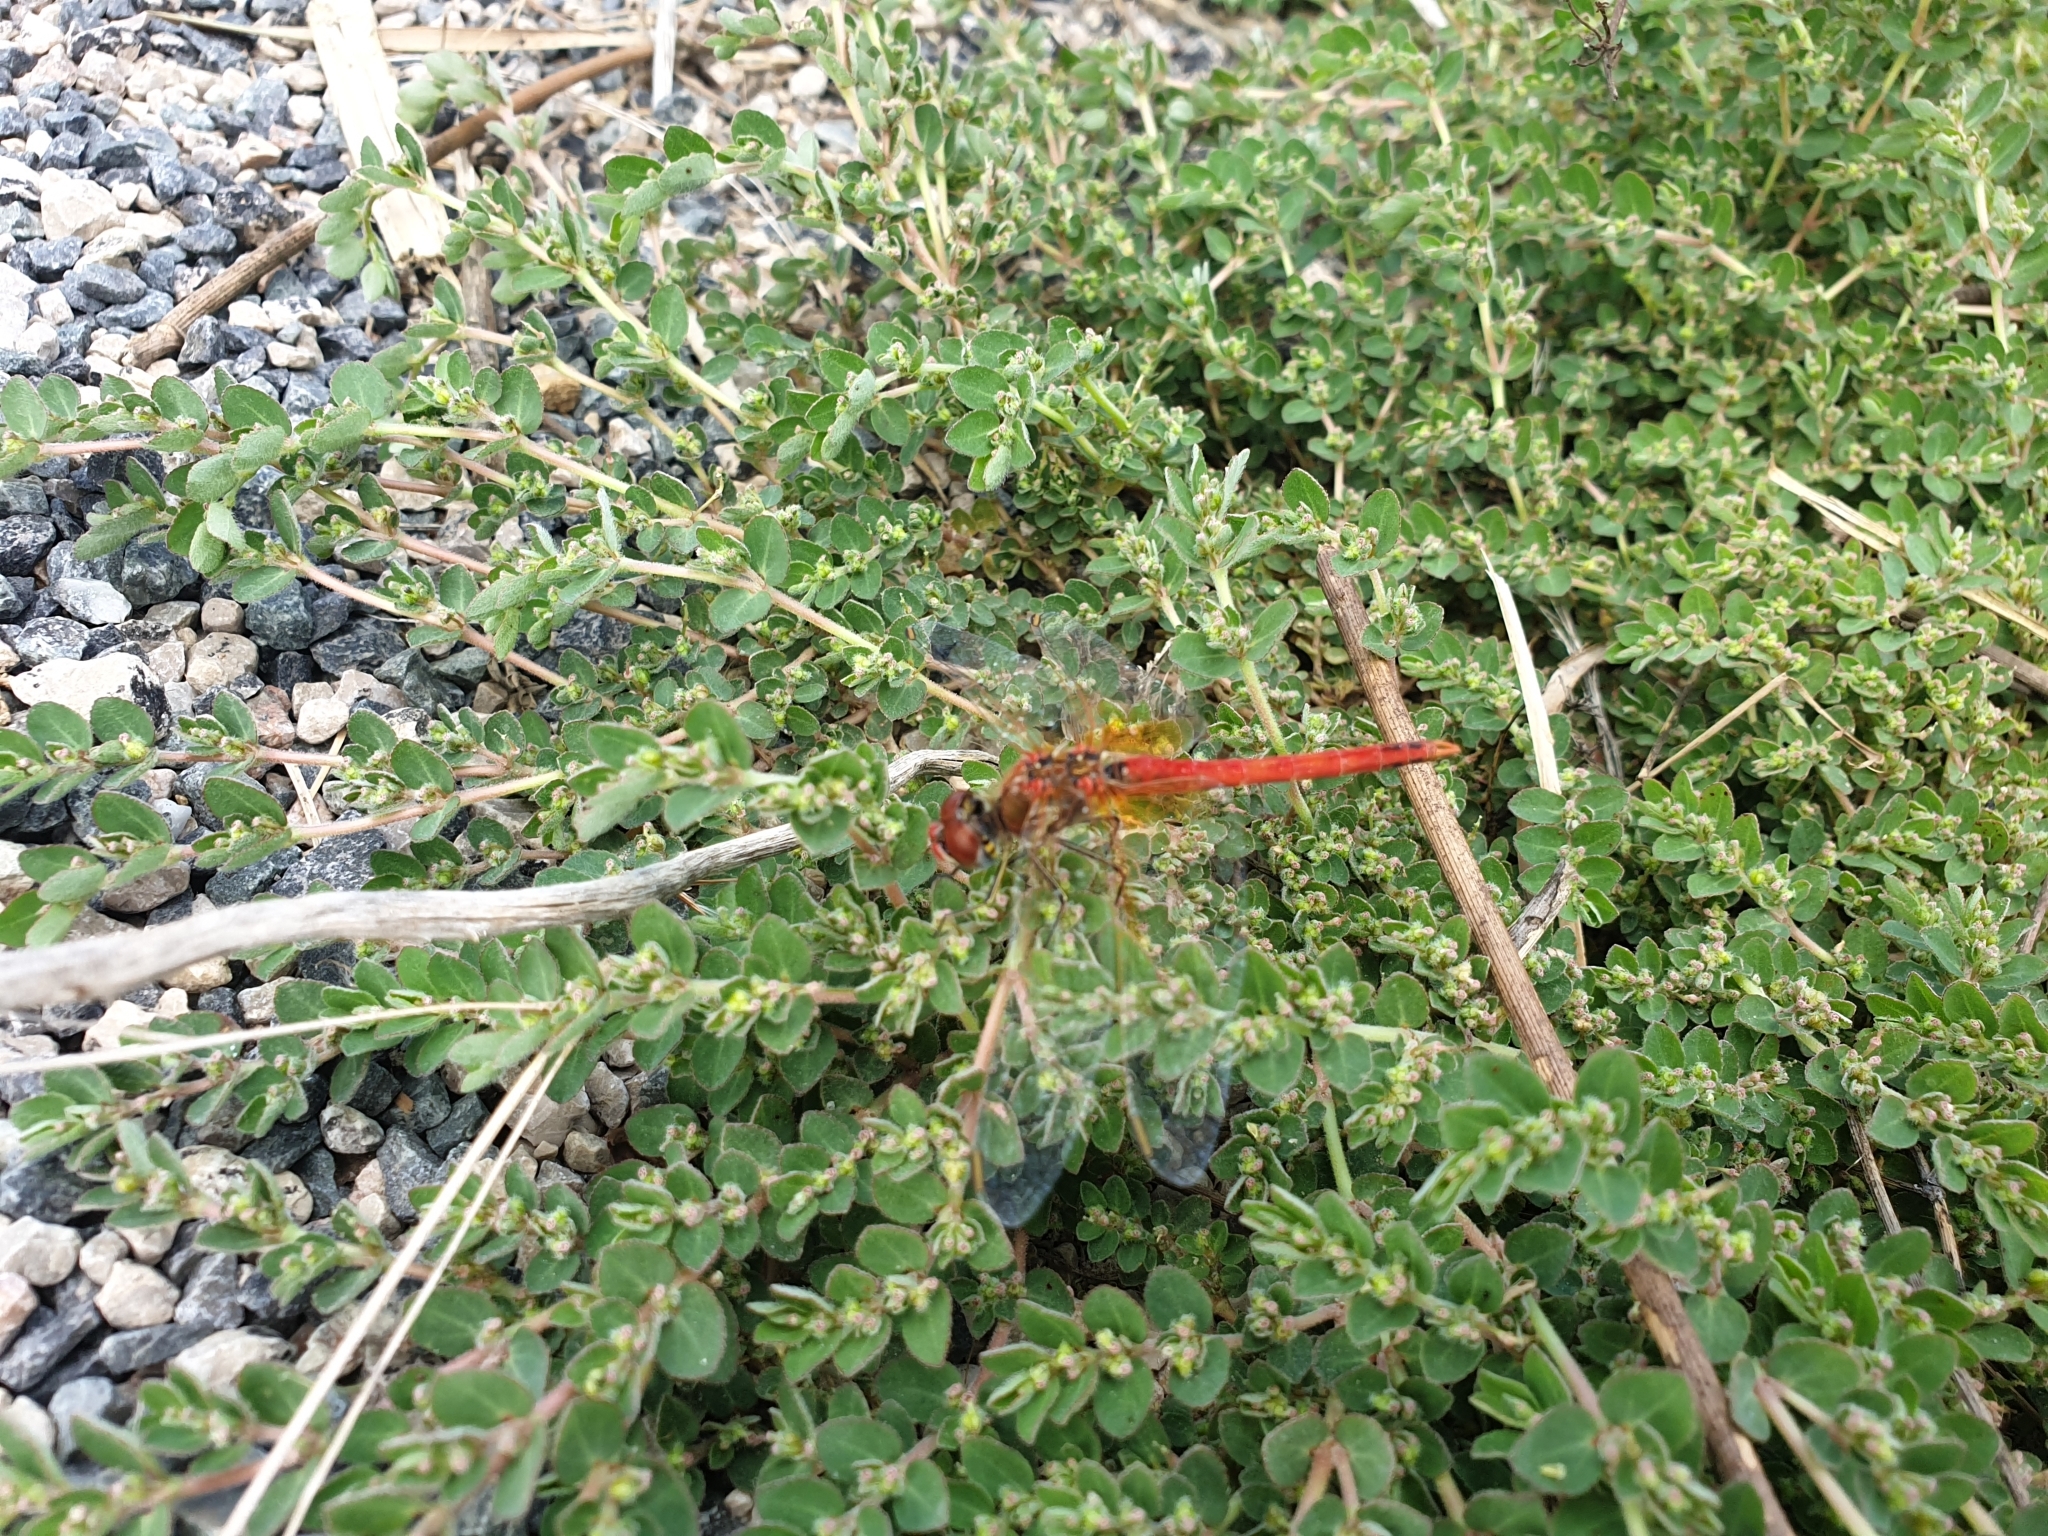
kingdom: Animalia
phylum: Arthropoda
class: Insecta
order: Odonata
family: Libellulidae
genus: Sympetrum
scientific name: Sympetrum fonscolombii
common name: Red-veined darter
